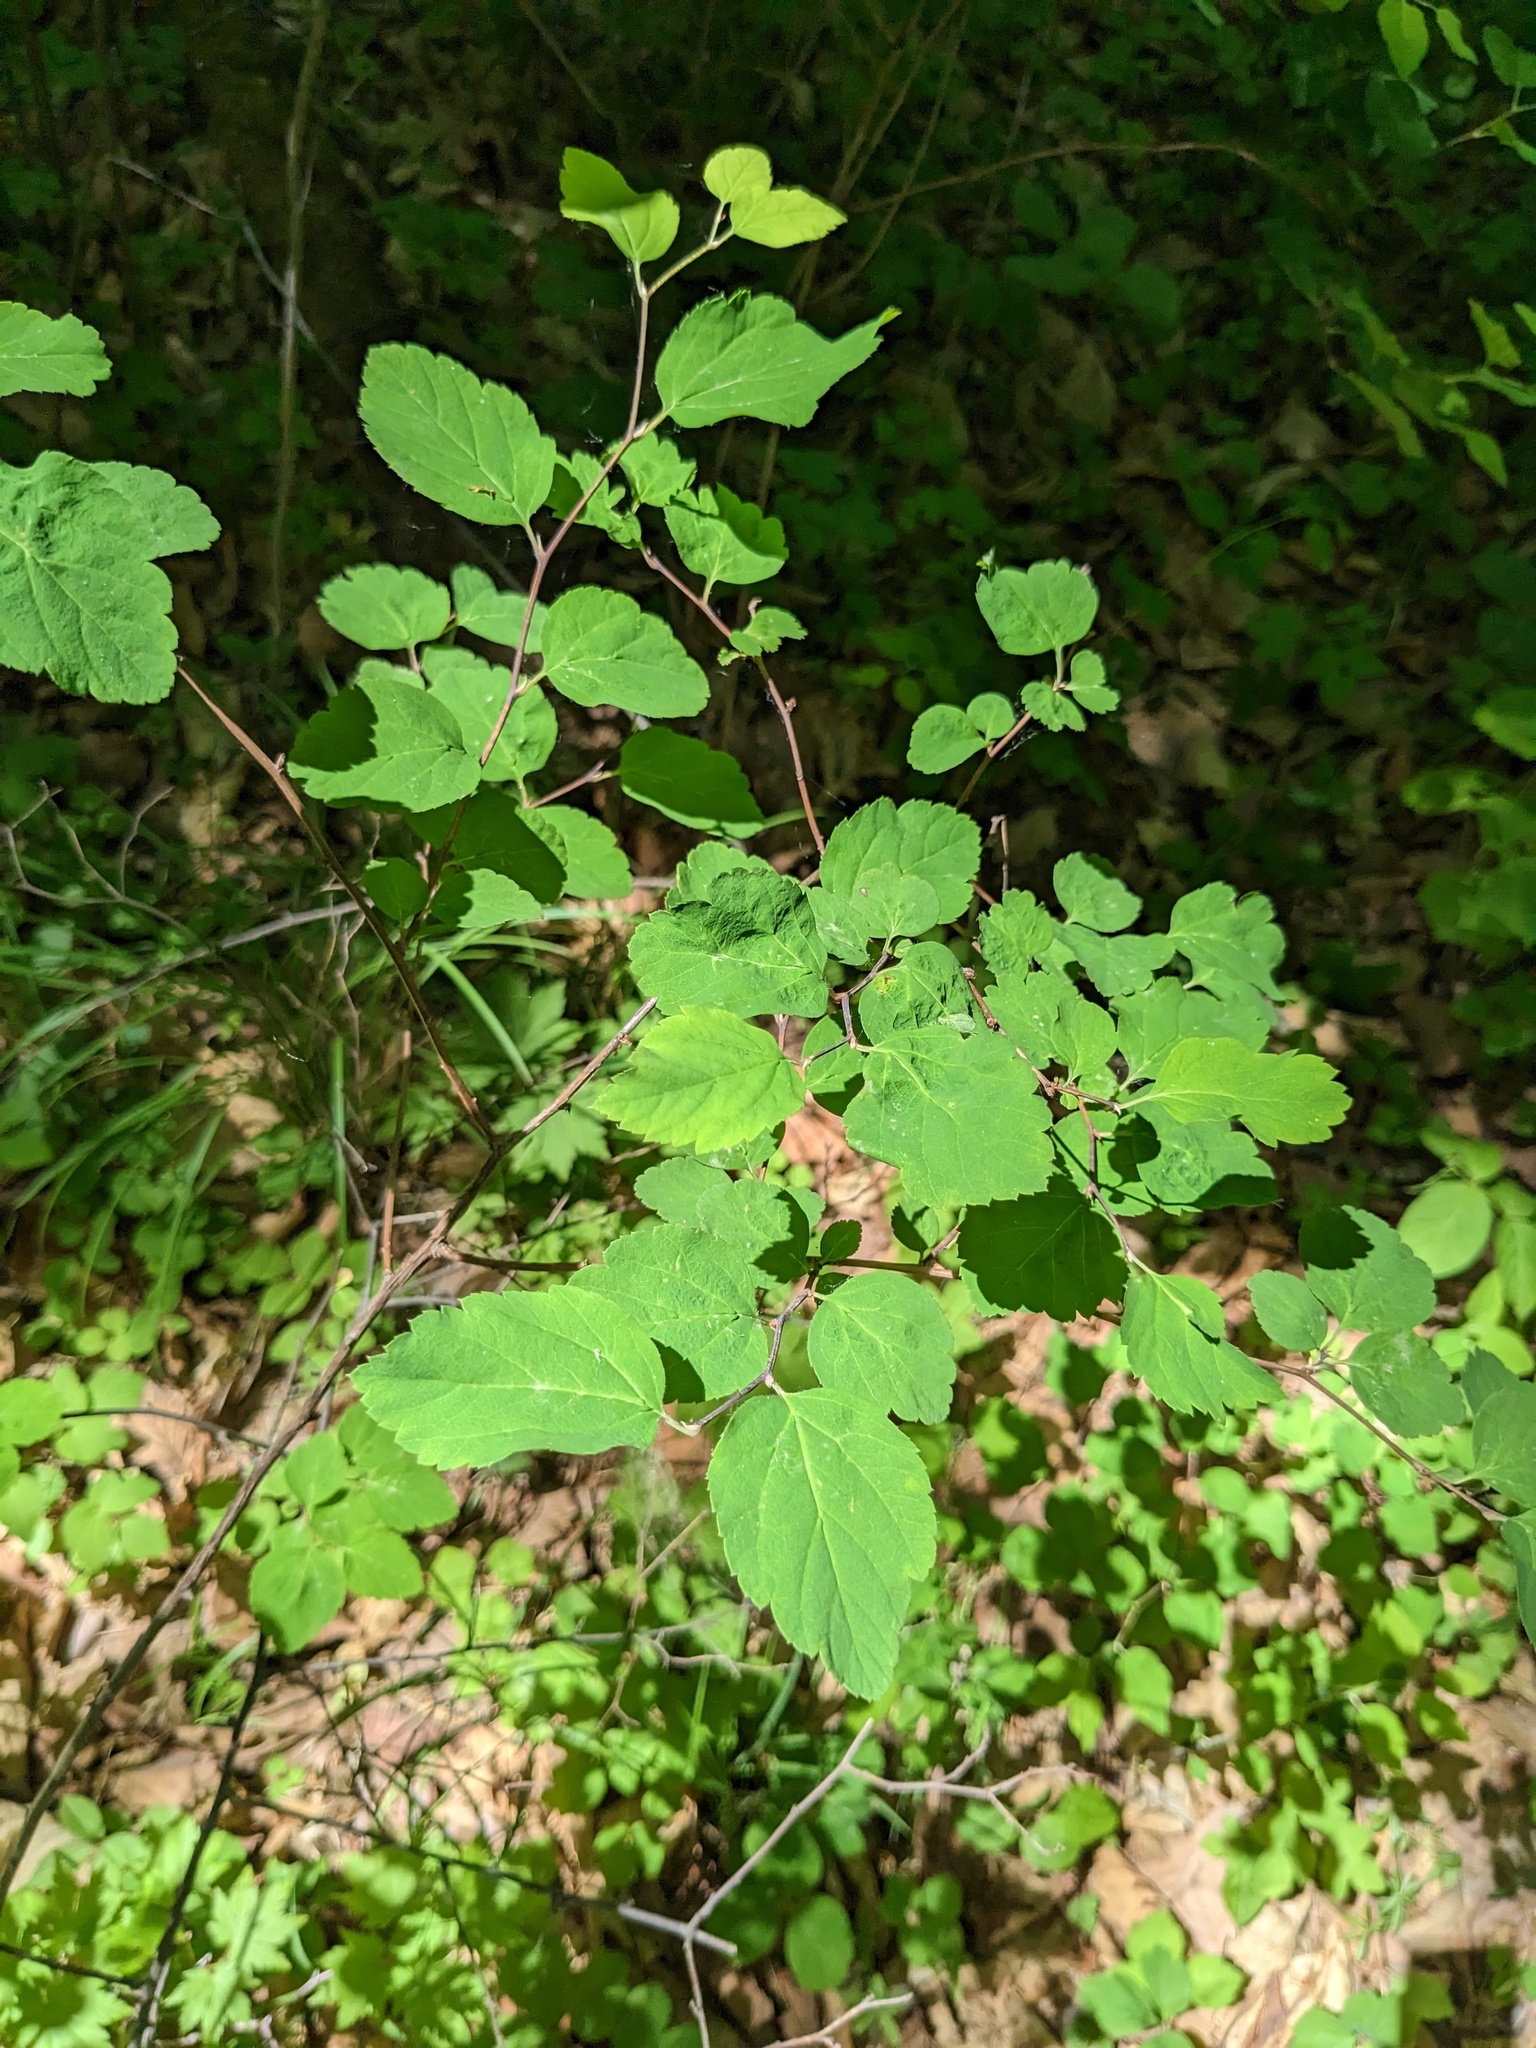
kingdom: Plantae
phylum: Tracheophyta
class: Magnoliopsida
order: Rosales
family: Rosaceae
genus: Spiraea
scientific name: Spiraea chamaedryfolia
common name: Elm-leaved spiraea
